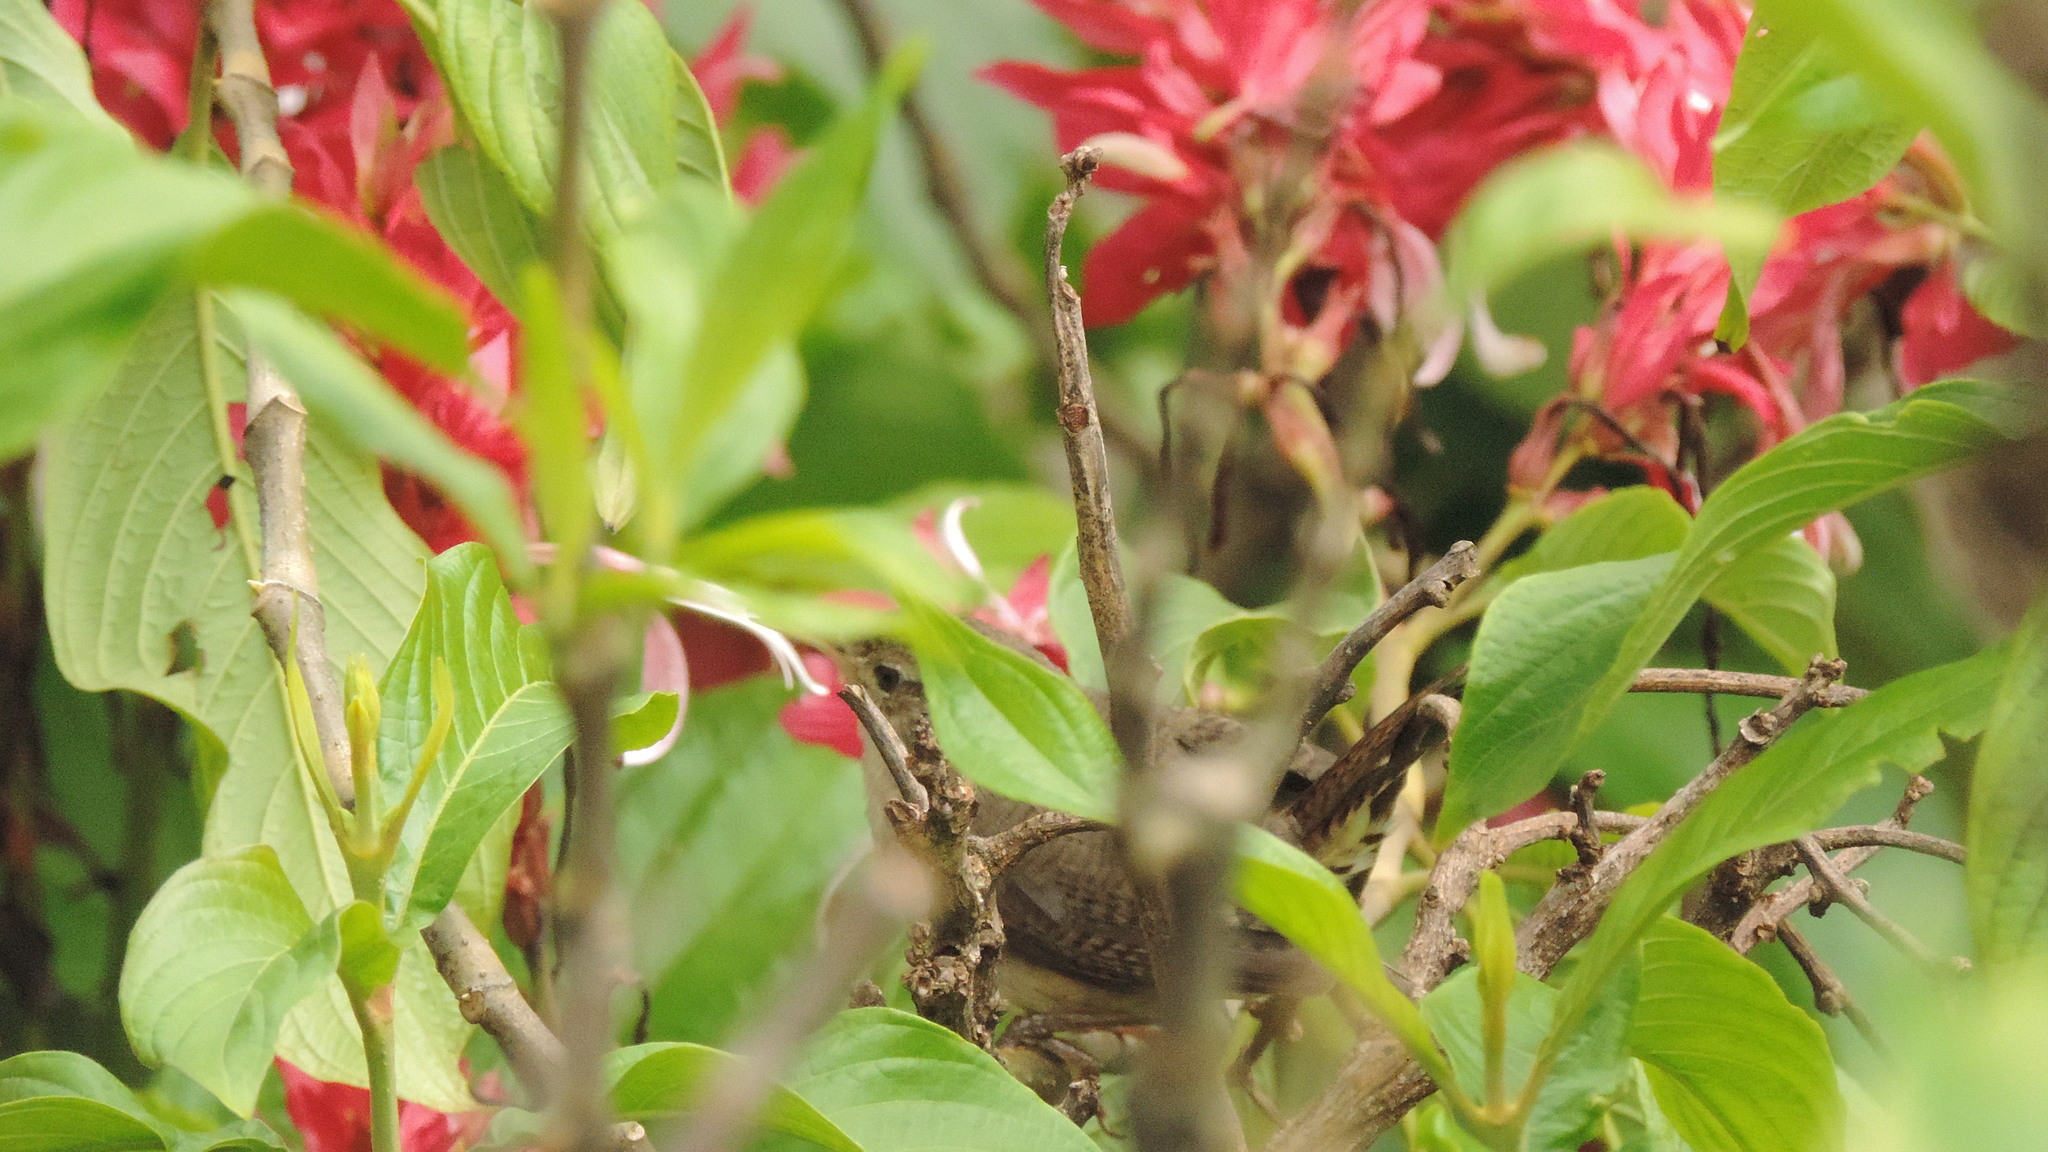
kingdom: Animalia
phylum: Chordata
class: Aves
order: Passeriformes
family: Troglodytidae
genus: Troglodytes
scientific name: Troglodytes aedon
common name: House wren
